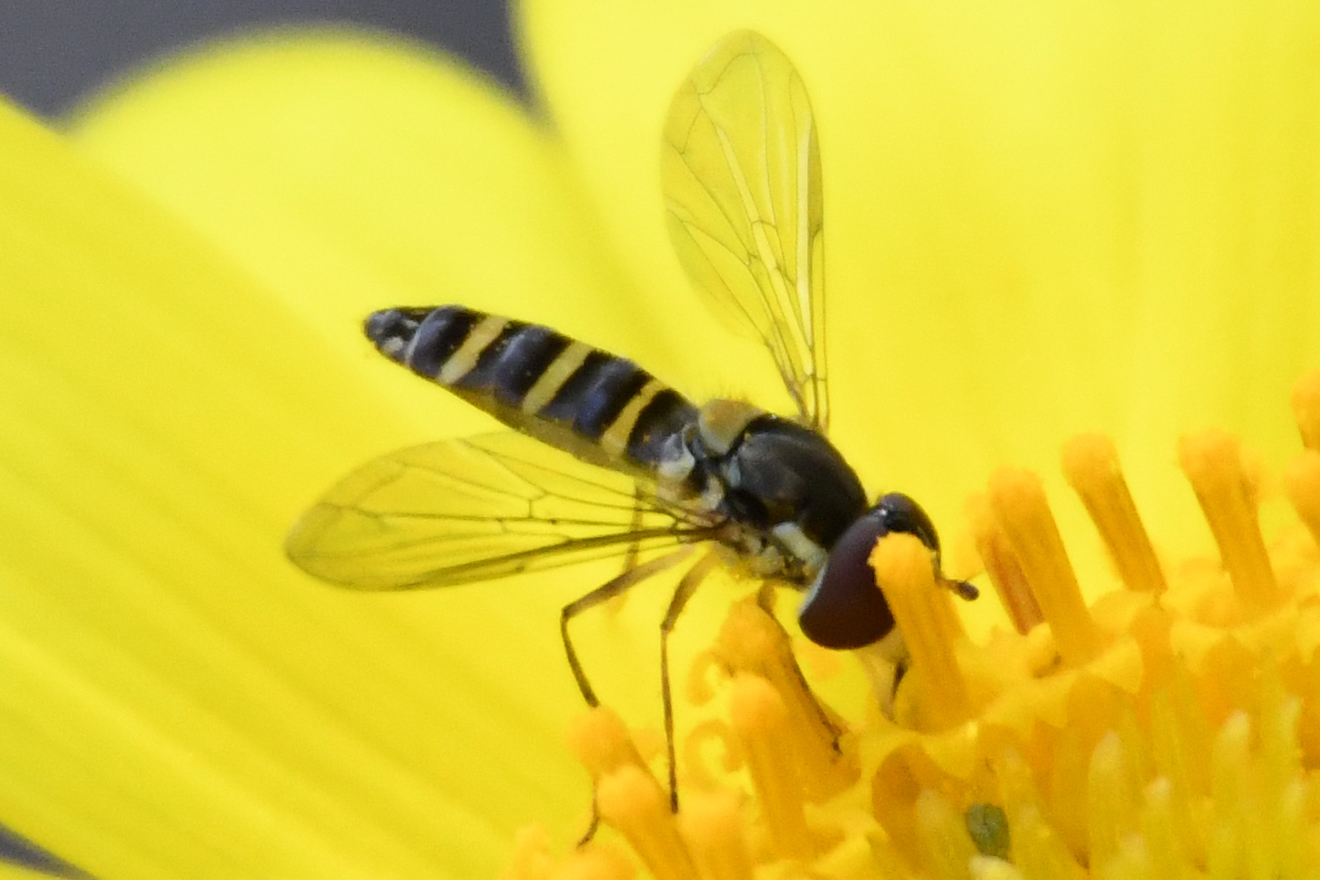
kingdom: Animalia
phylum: Arthropoda
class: Insecta
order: Diptera
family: Syrphidae
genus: Fazia
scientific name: Fazia micrura
